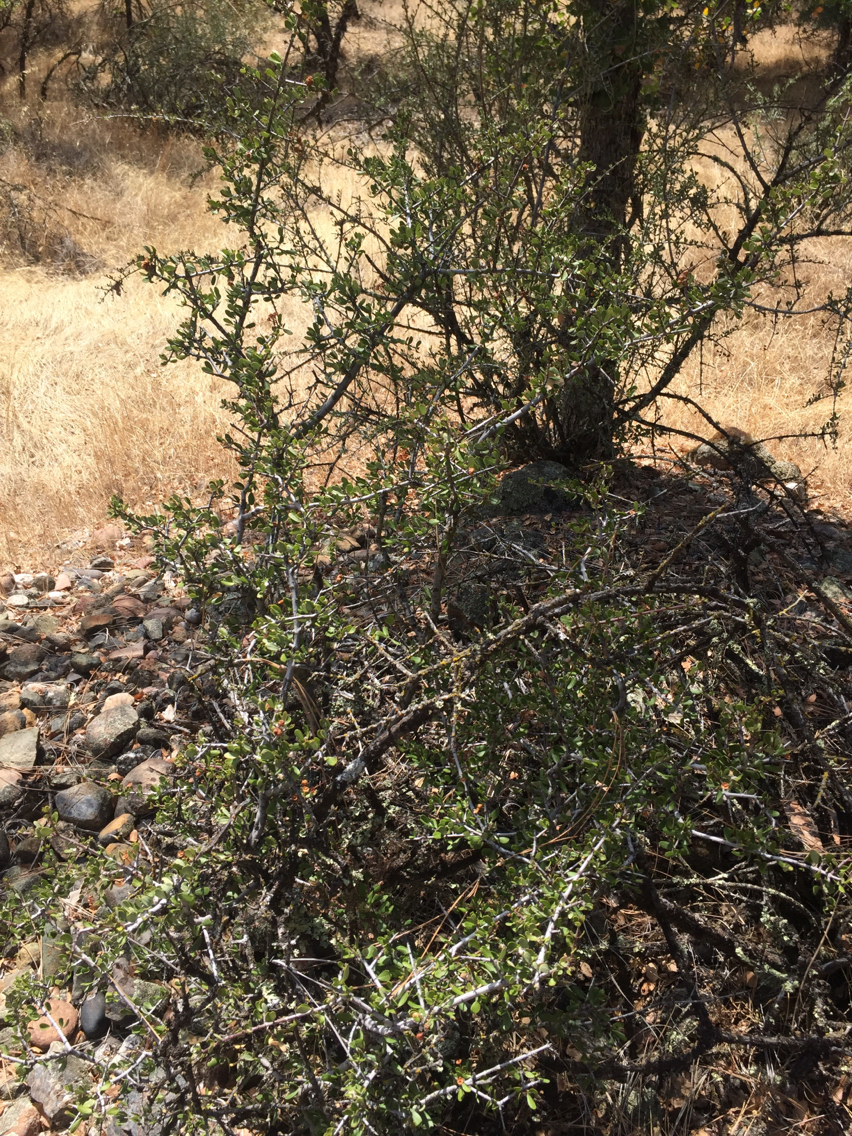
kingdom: Plantae
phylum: Tracheophyta
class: Magnoliopsida
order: Rosales
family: Rhamnaceae
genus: Ceanothus
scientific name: Ceanothus cuneatus
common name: Cuneate ceanothus
